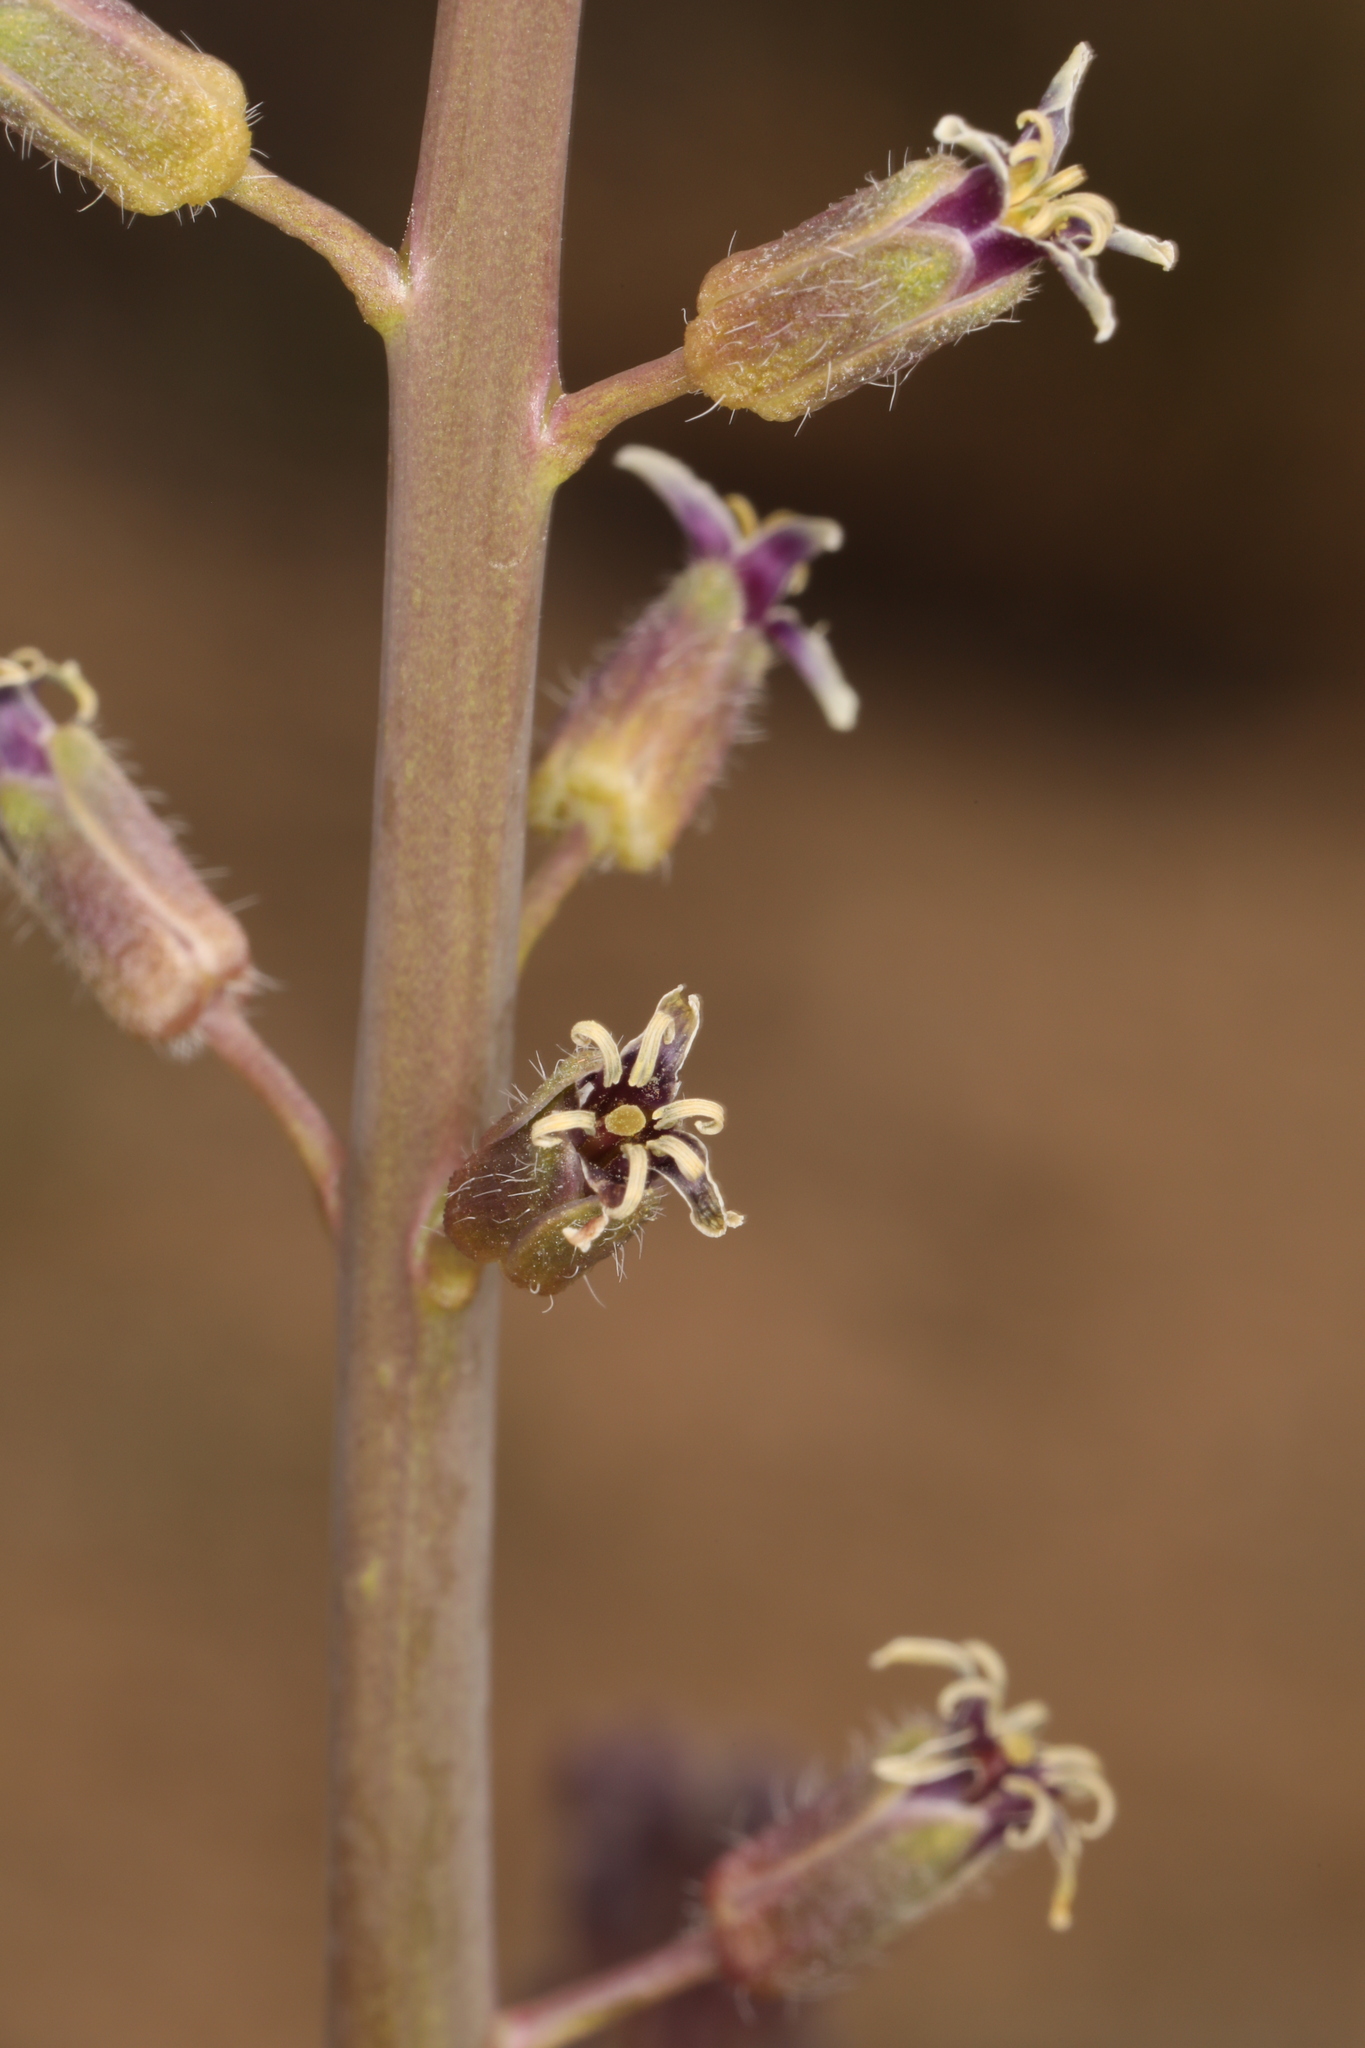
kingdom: Plantae
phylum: Tracheophyta
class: Magnoliopsida
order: Brassicales
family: Brassicaceae
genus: Streptanthus
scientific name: Streptanthus pilosus
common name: Chocolate drops
